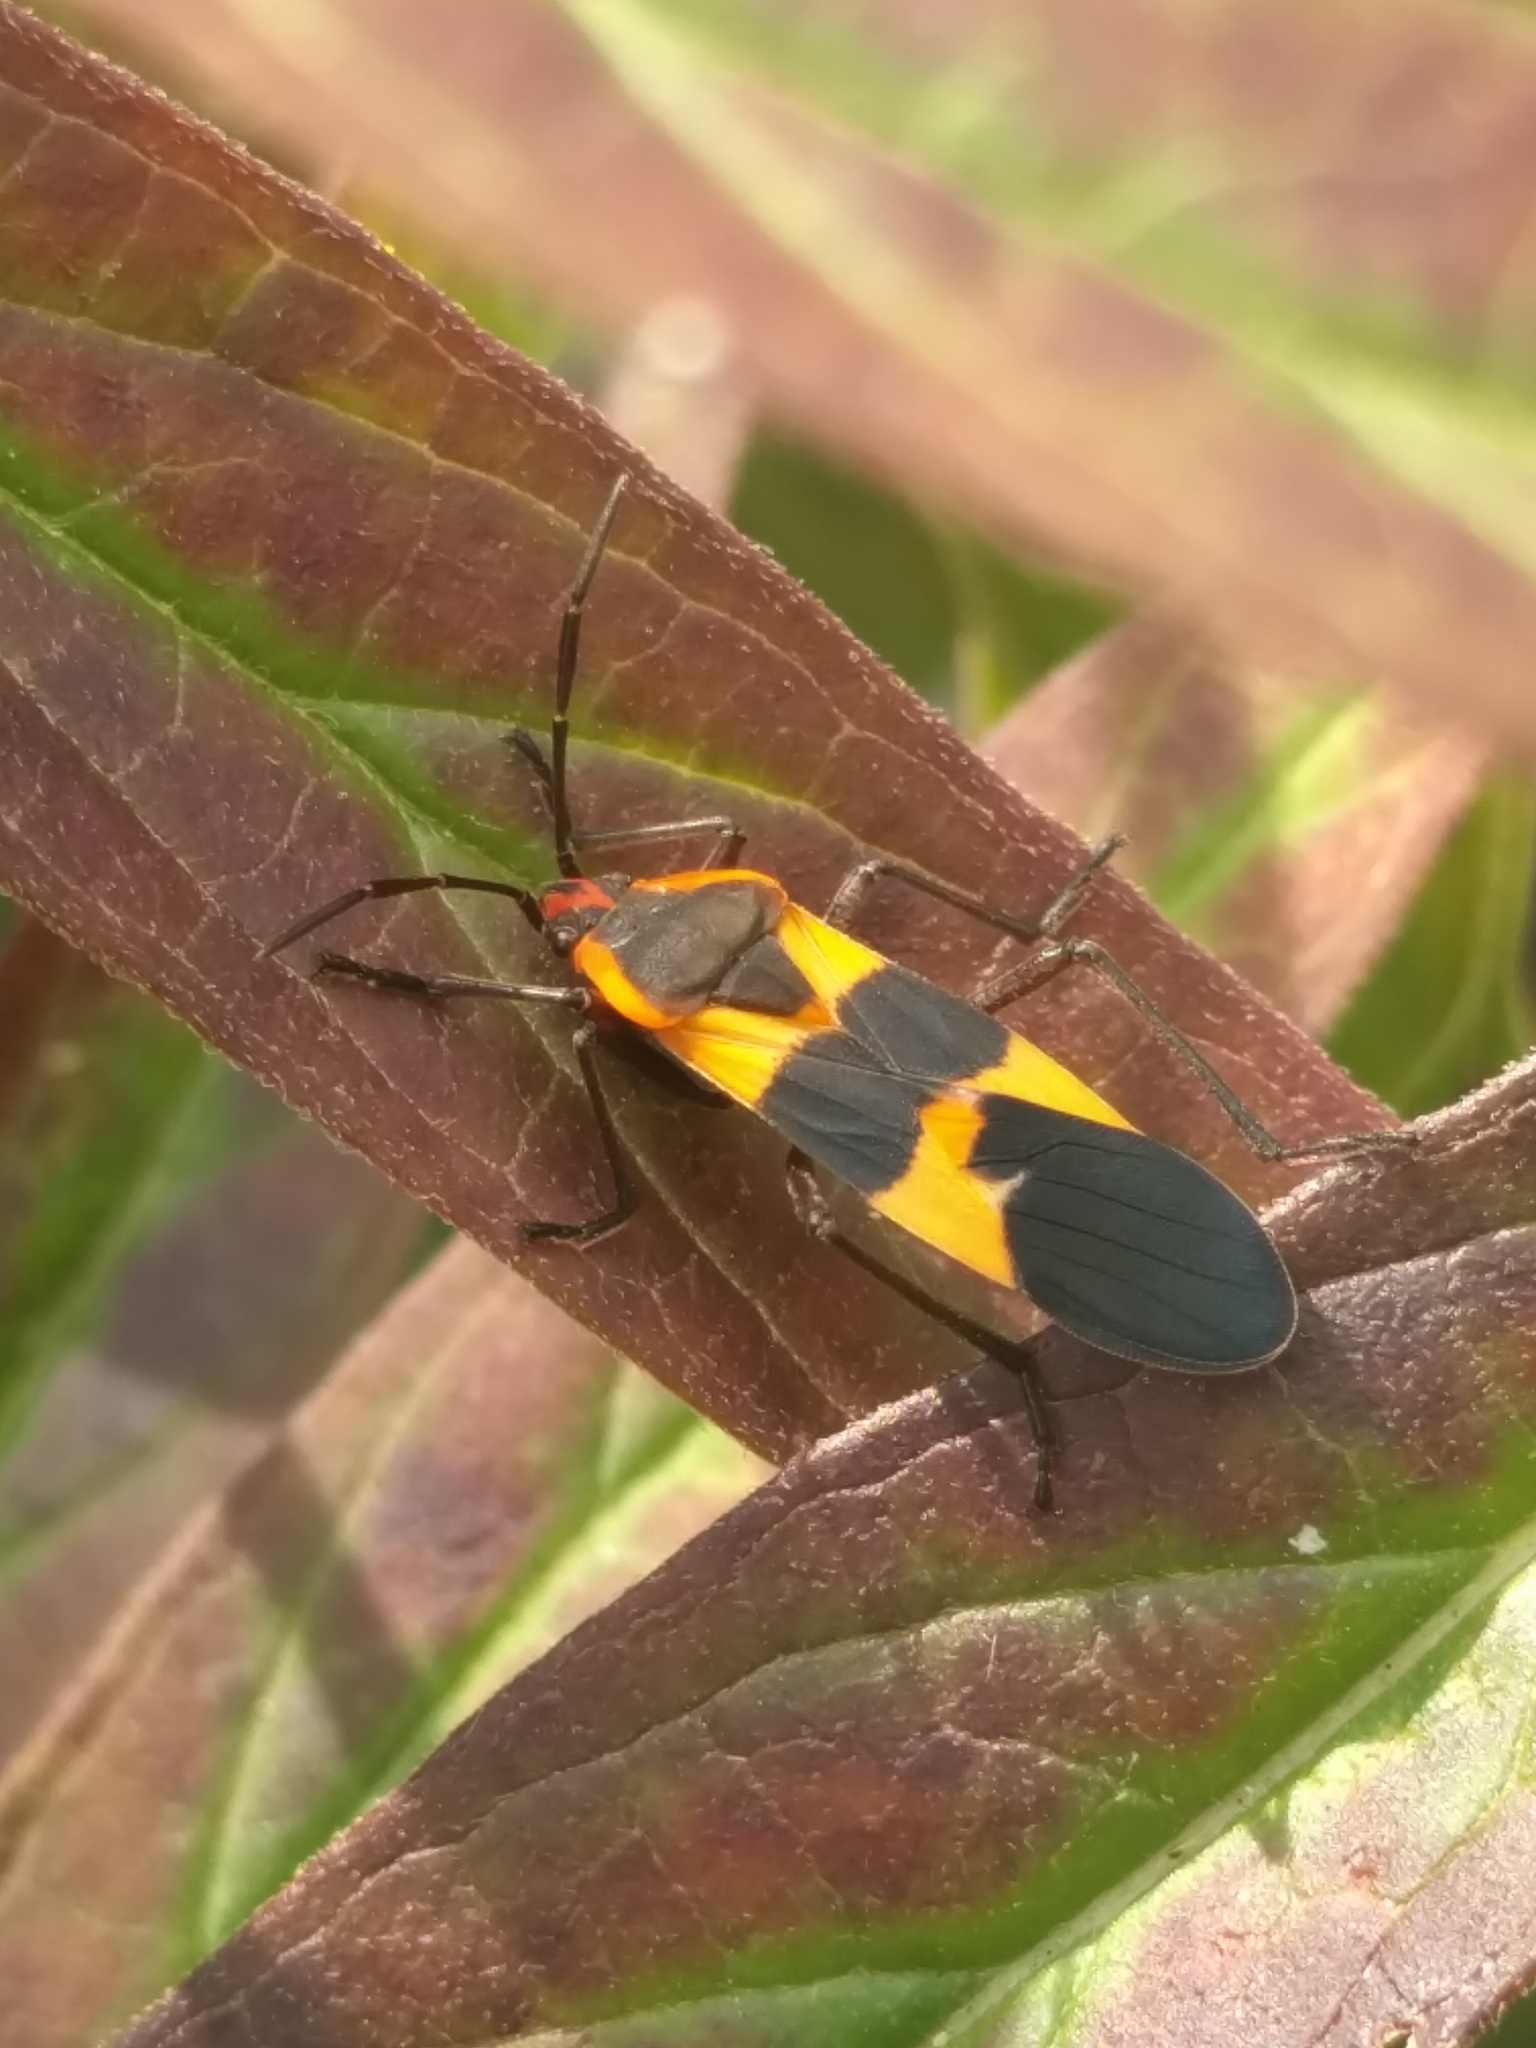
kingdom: Animalia
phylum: Arthropoda
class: Insecta
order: Hemiptera
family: Lygaeidae
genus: Oncopeltus
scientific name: Oncopeltus fasciatus
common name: Large milkweed bug
